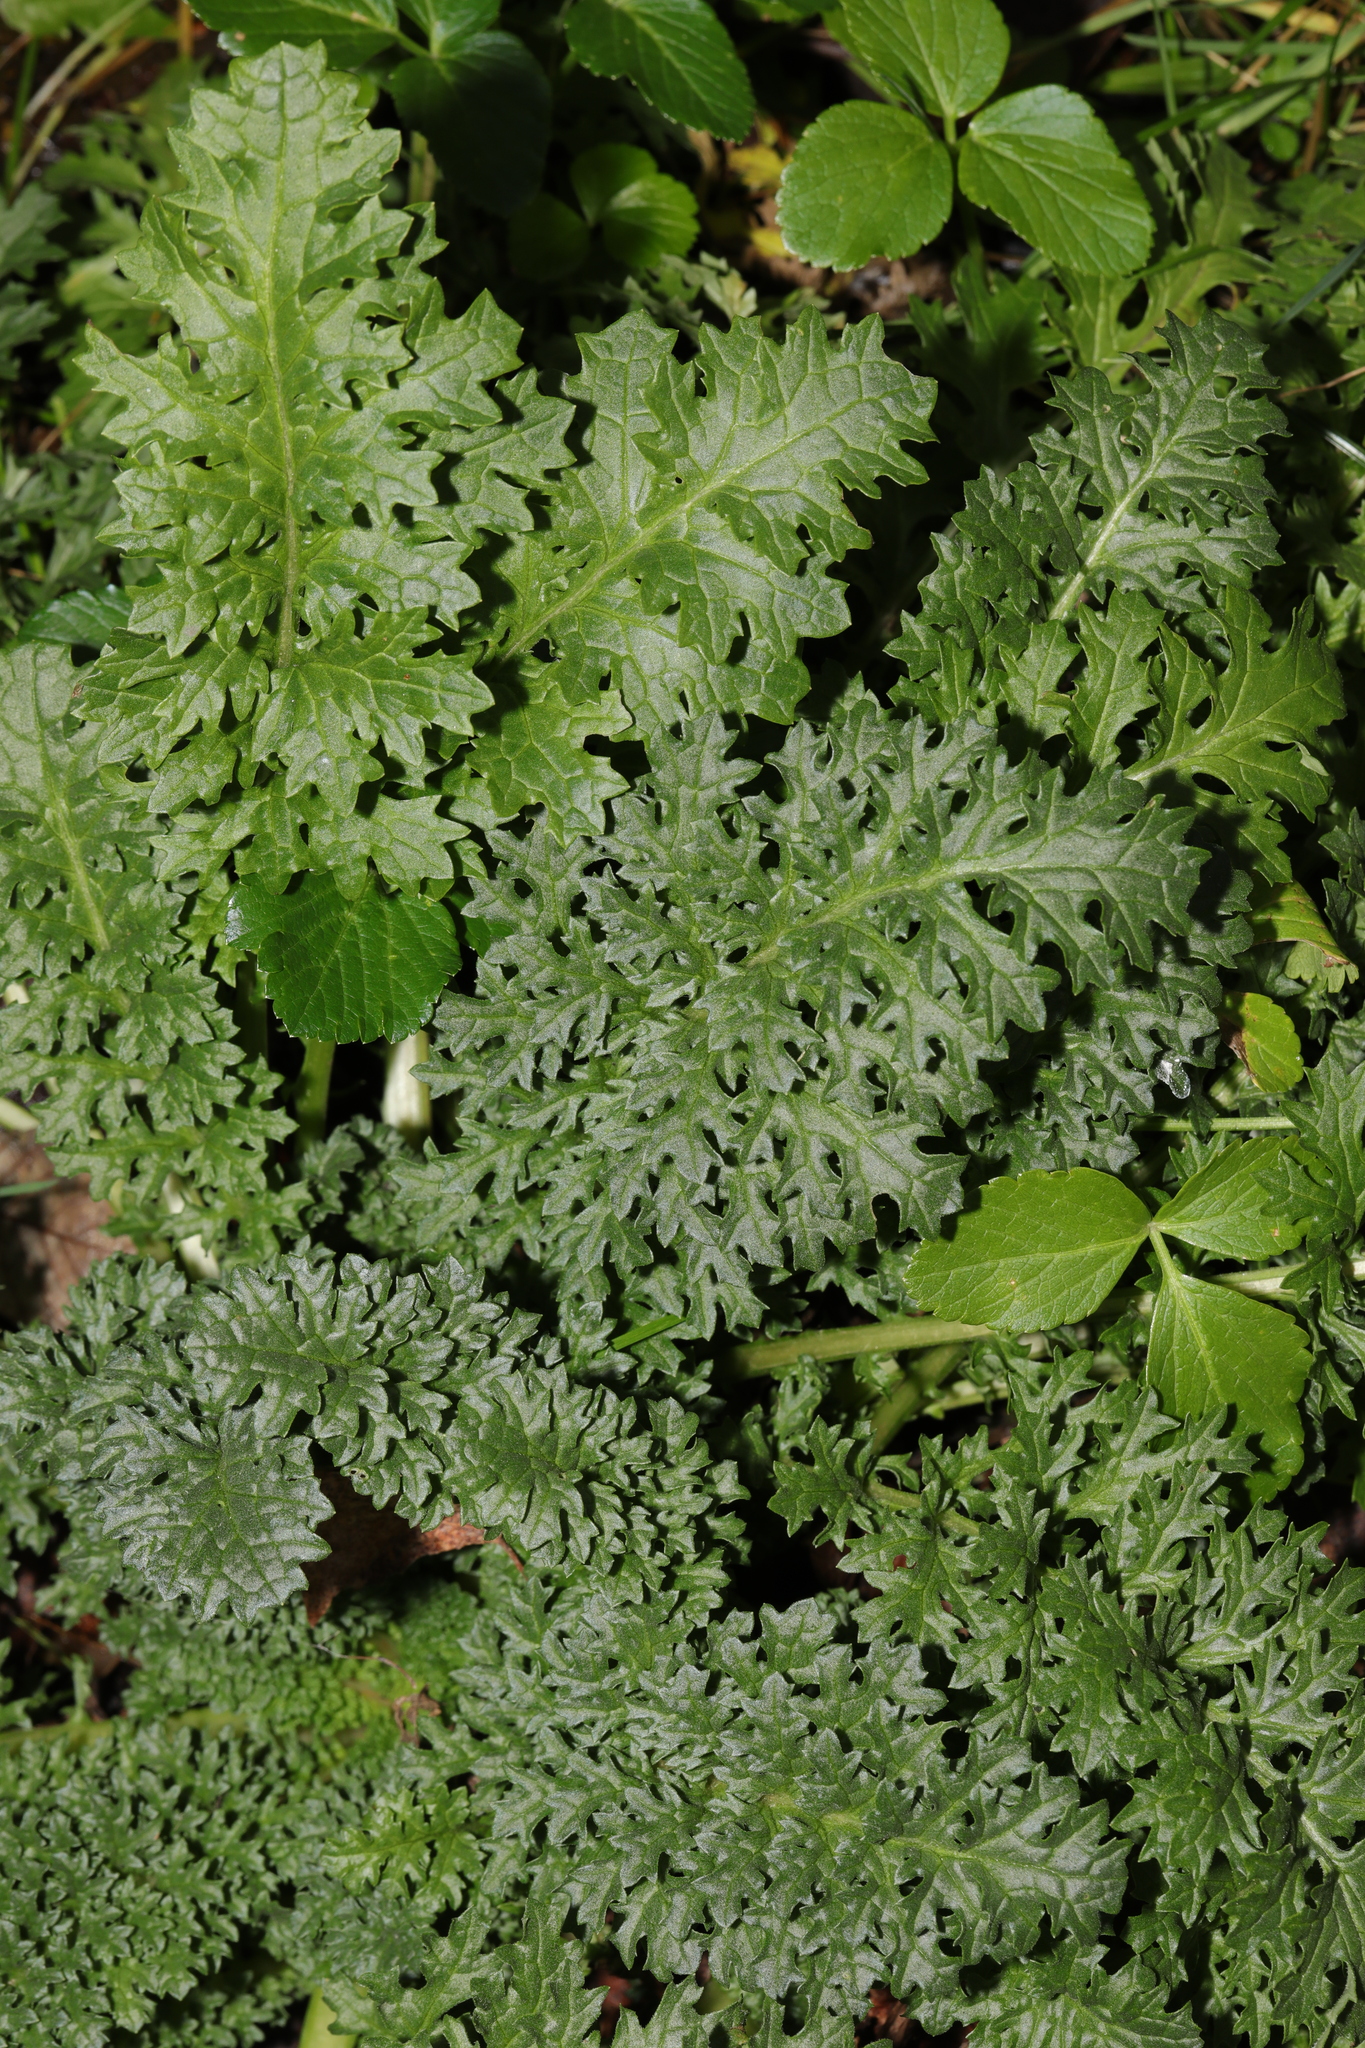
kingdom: Plantae
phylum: Tracheophyta
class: Magnoliopsida
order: Asterales
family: Asteraceae
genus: Jacobaea
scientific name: Jacobaea vulgaris
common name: Stinking willie
